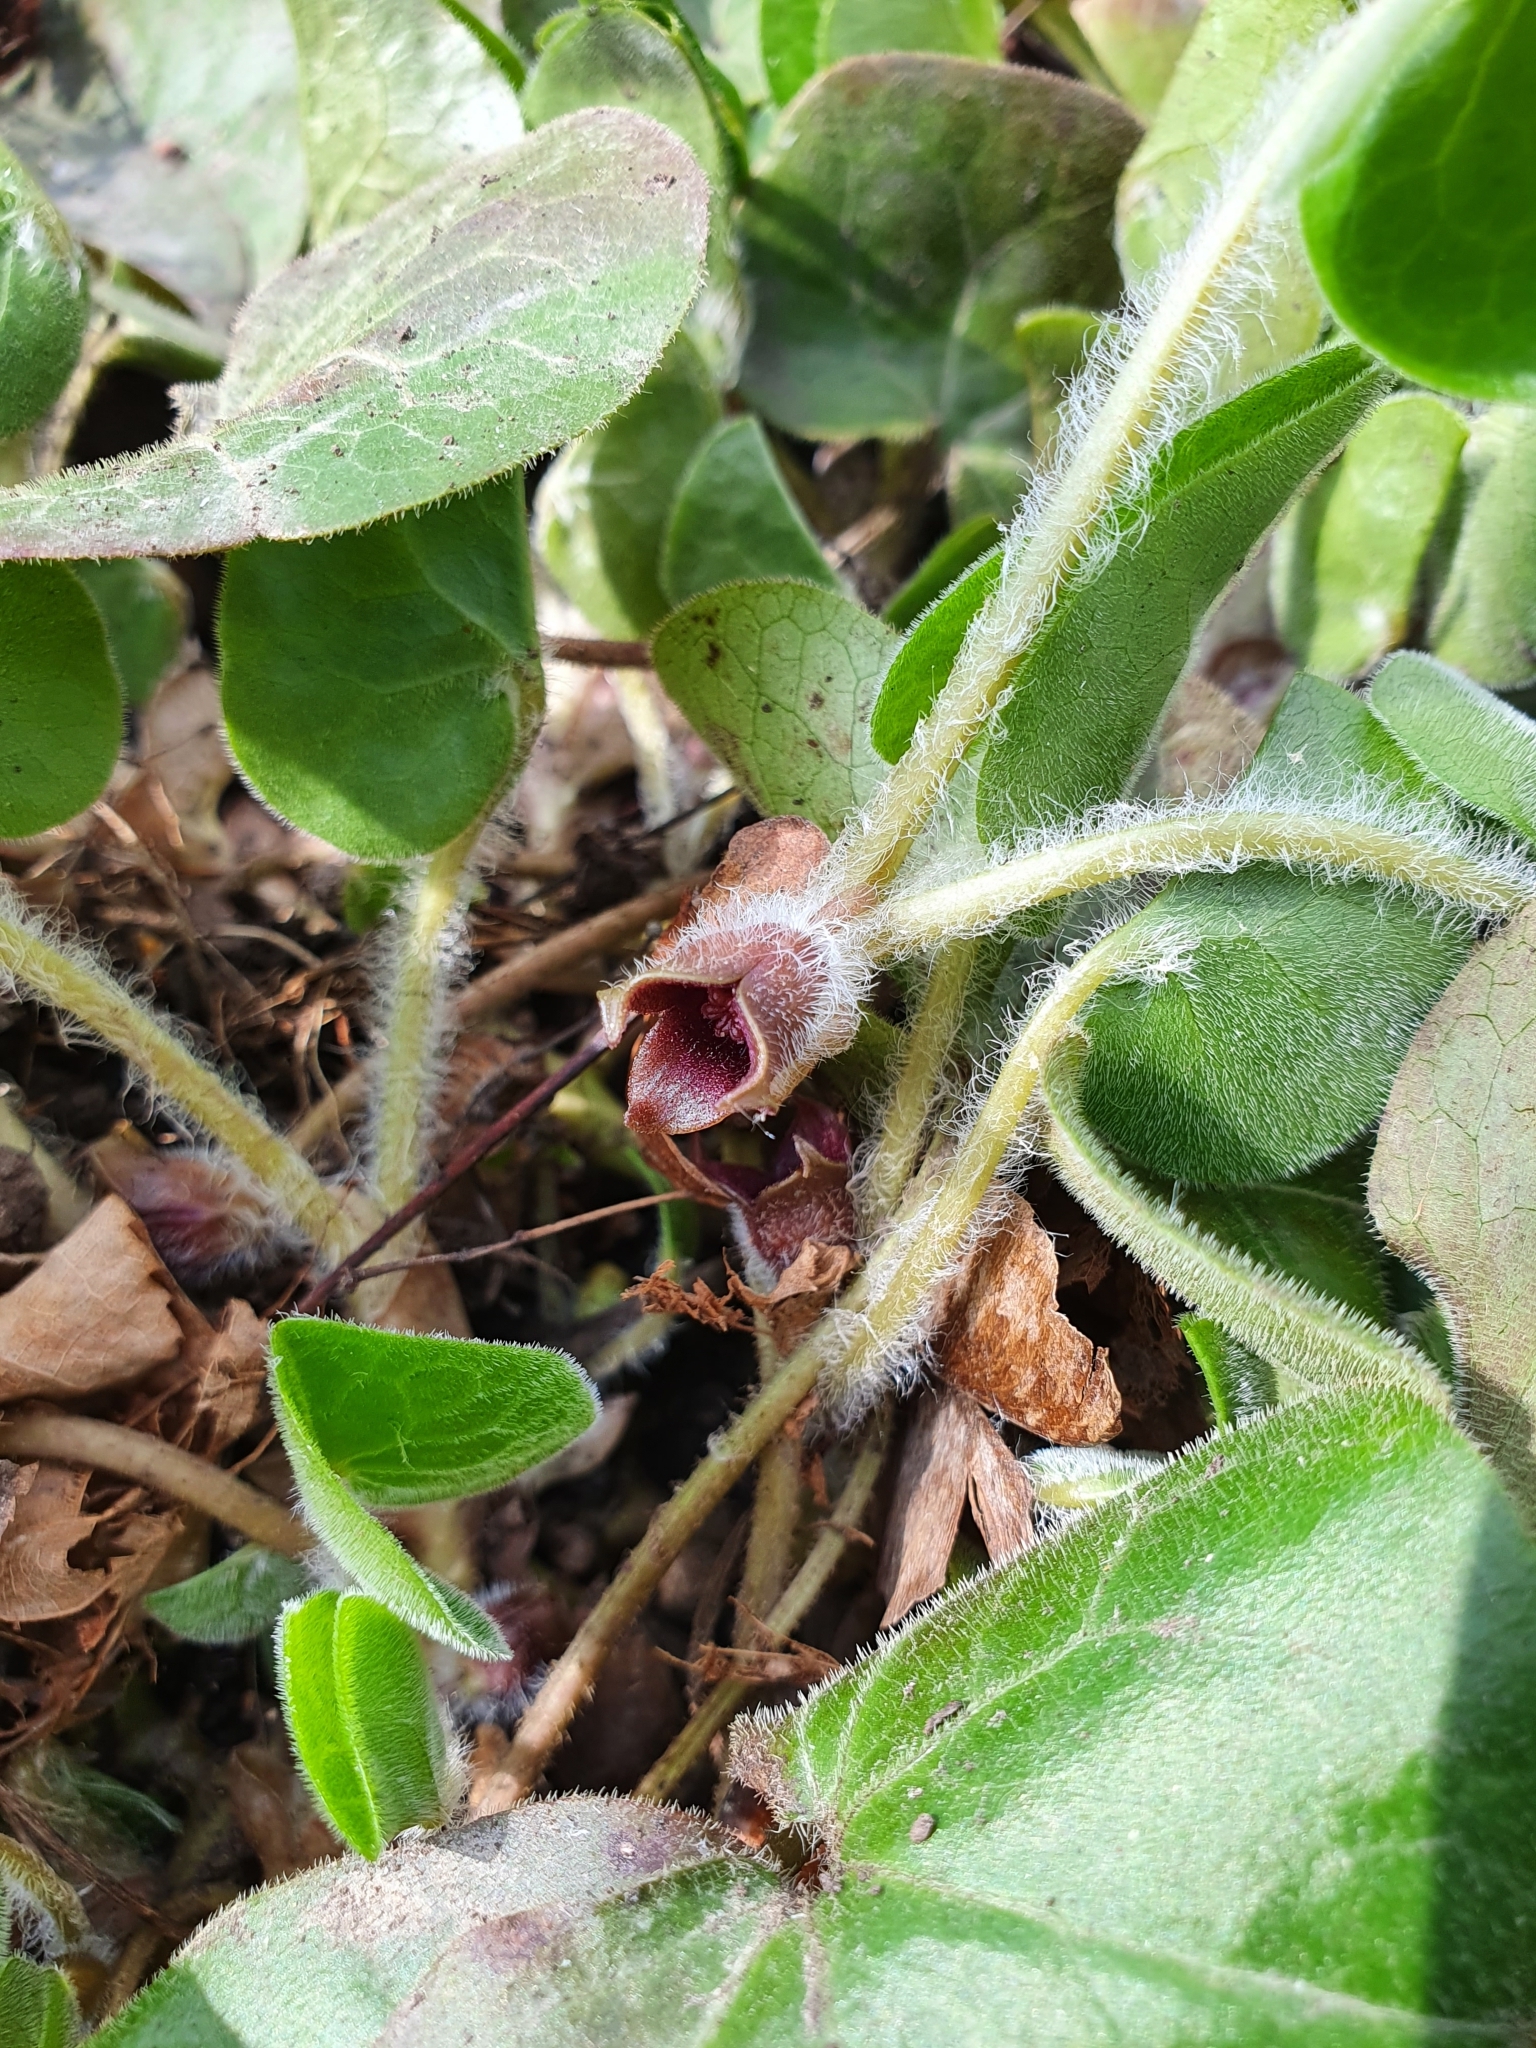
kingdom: Plantae
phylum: Tracheophyta
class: Magnoliopsida
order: Piperales
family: Aristolochiaceae
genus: Asarum
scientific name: Asarum europaeum
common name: Asarabacca
